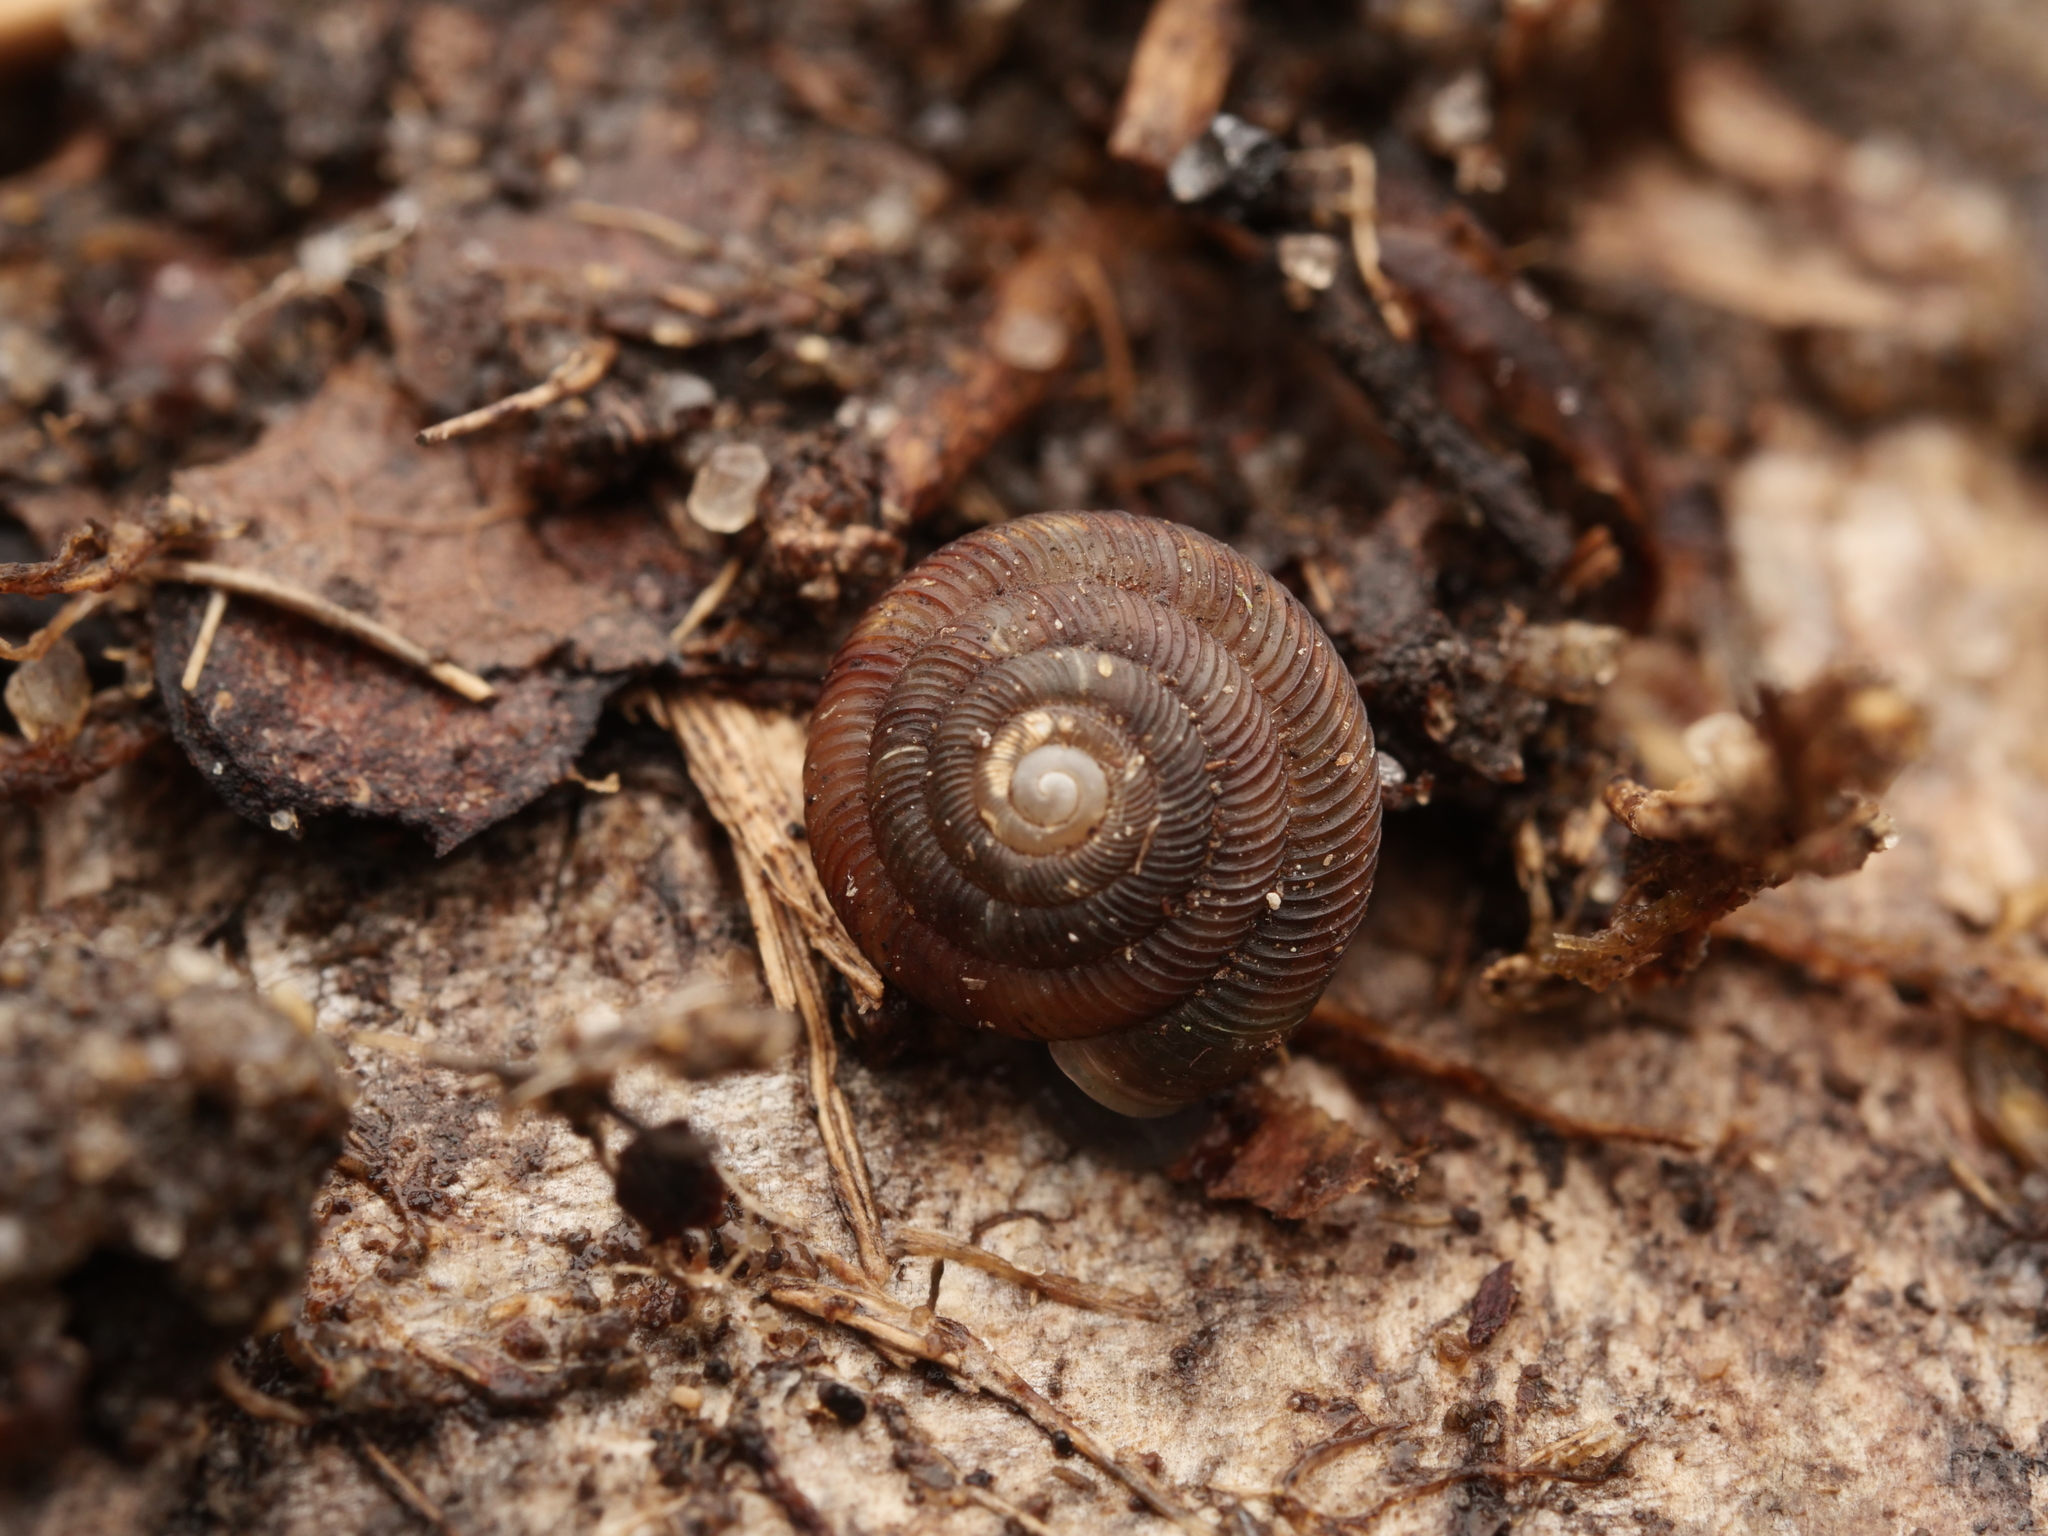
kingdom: Animalia
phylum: Mollusca
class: Gastropoda
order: Stylommatophora
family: Discidae
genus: Discus
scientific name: Discus rotundatus
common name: Rounded snail
